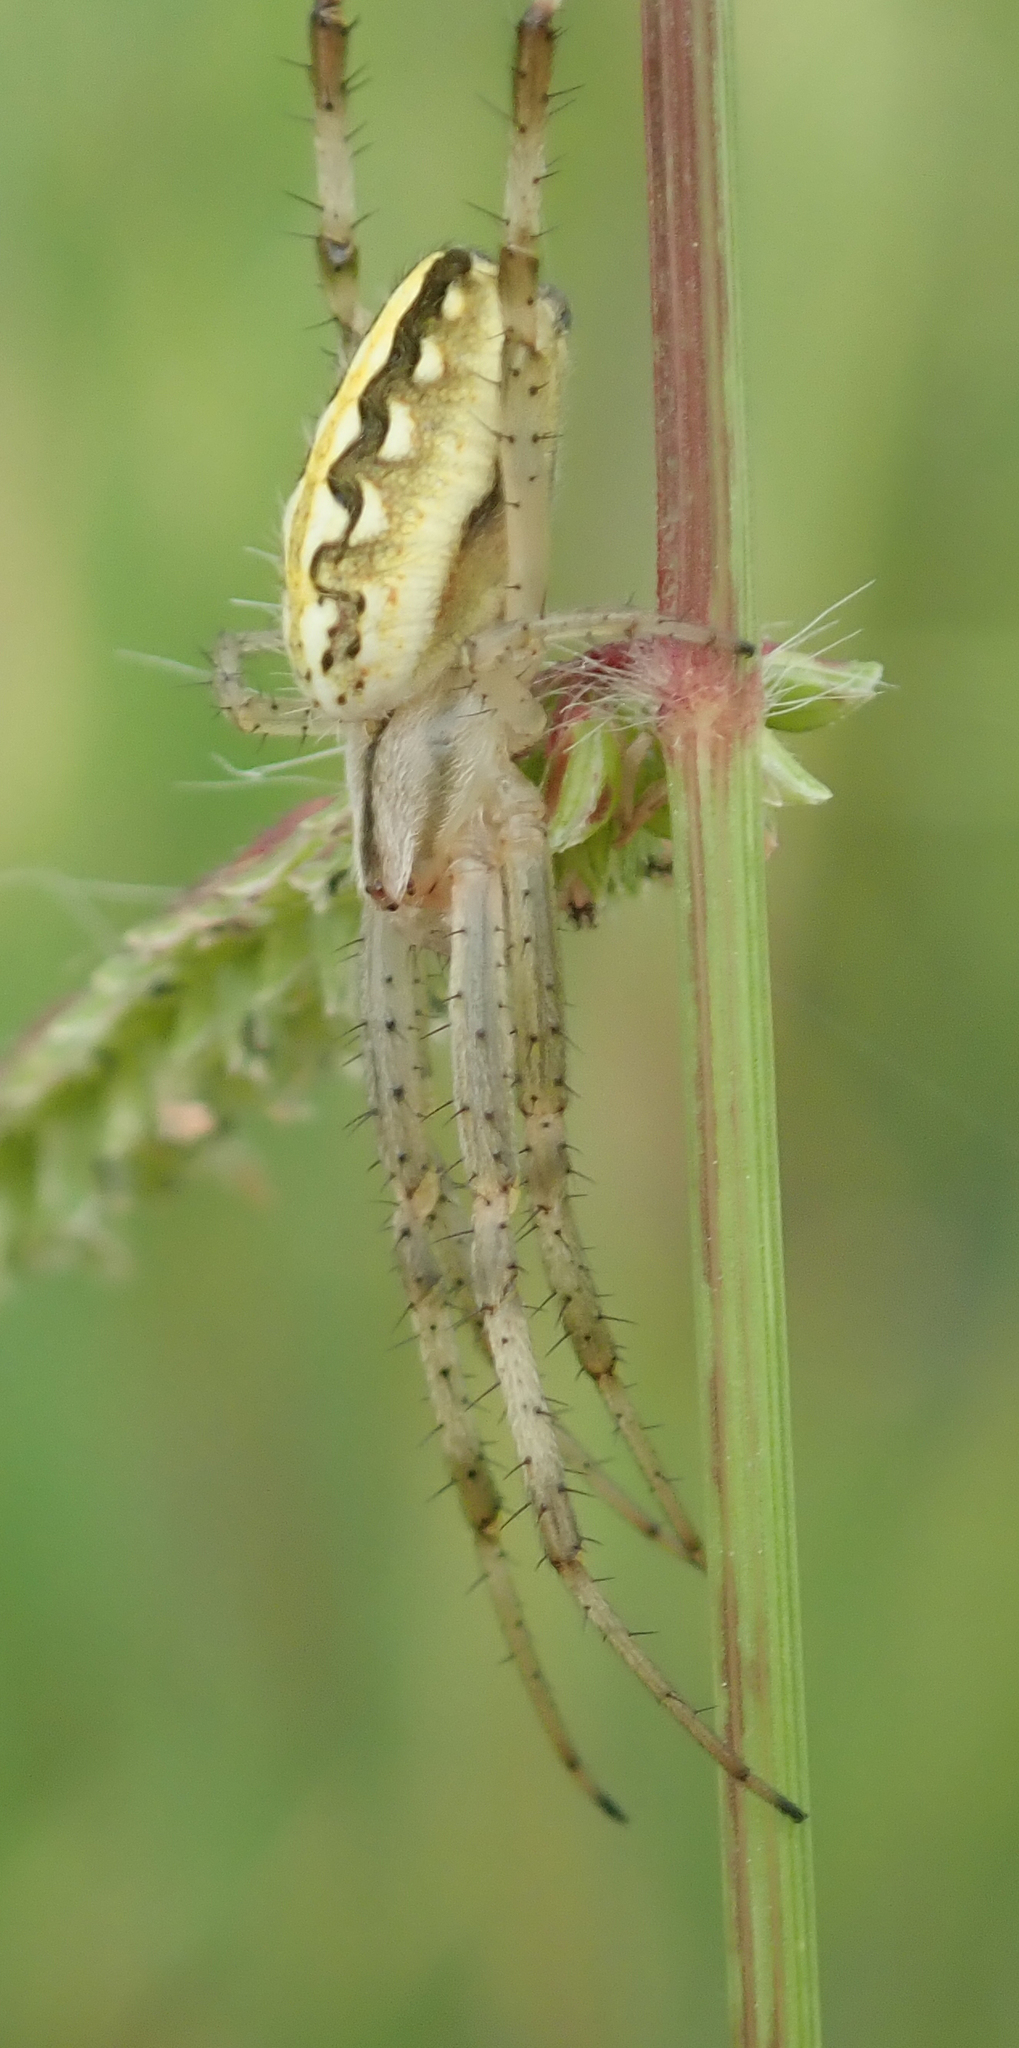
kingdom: Animalia
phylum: Arthropoda
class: Arachnida
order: Araneae
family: Araneidae
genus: Neoscona
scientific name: Neoscona moreli
